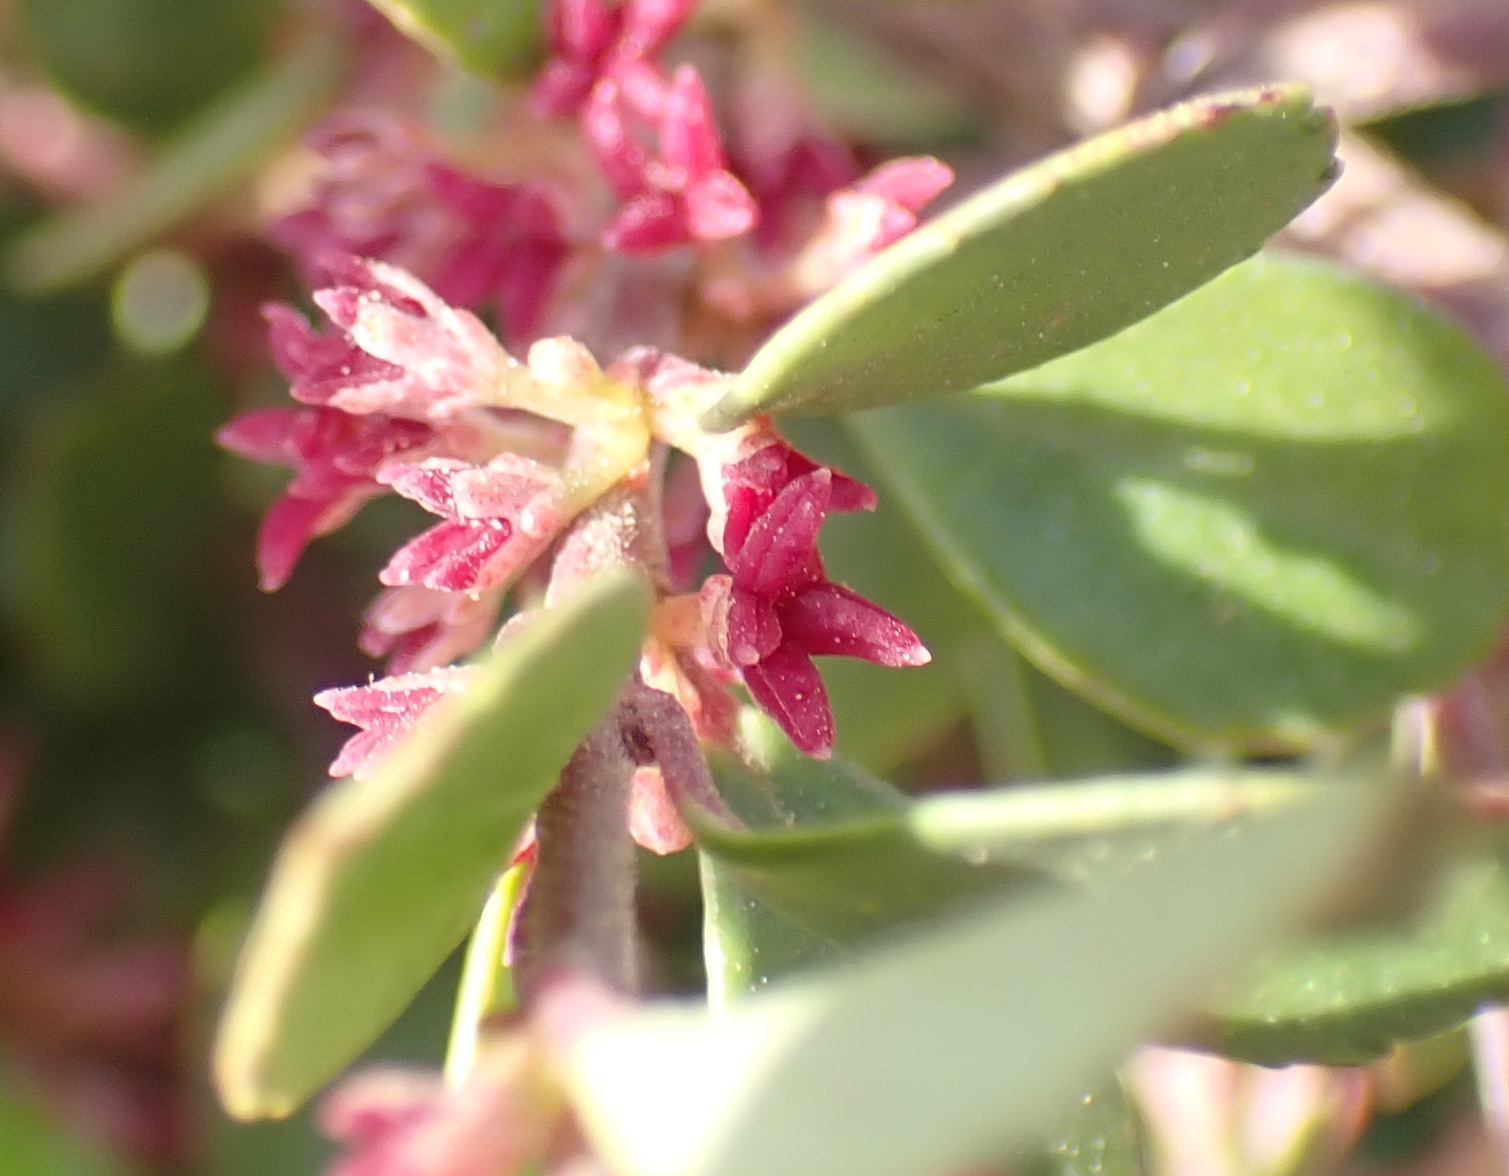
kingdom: Plantae
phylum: Tracheophyta
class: Magnoliopsida
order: Ericales
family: Primulaceae
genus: Myrsine
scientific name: Myrsine africana
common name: African-boxwood
